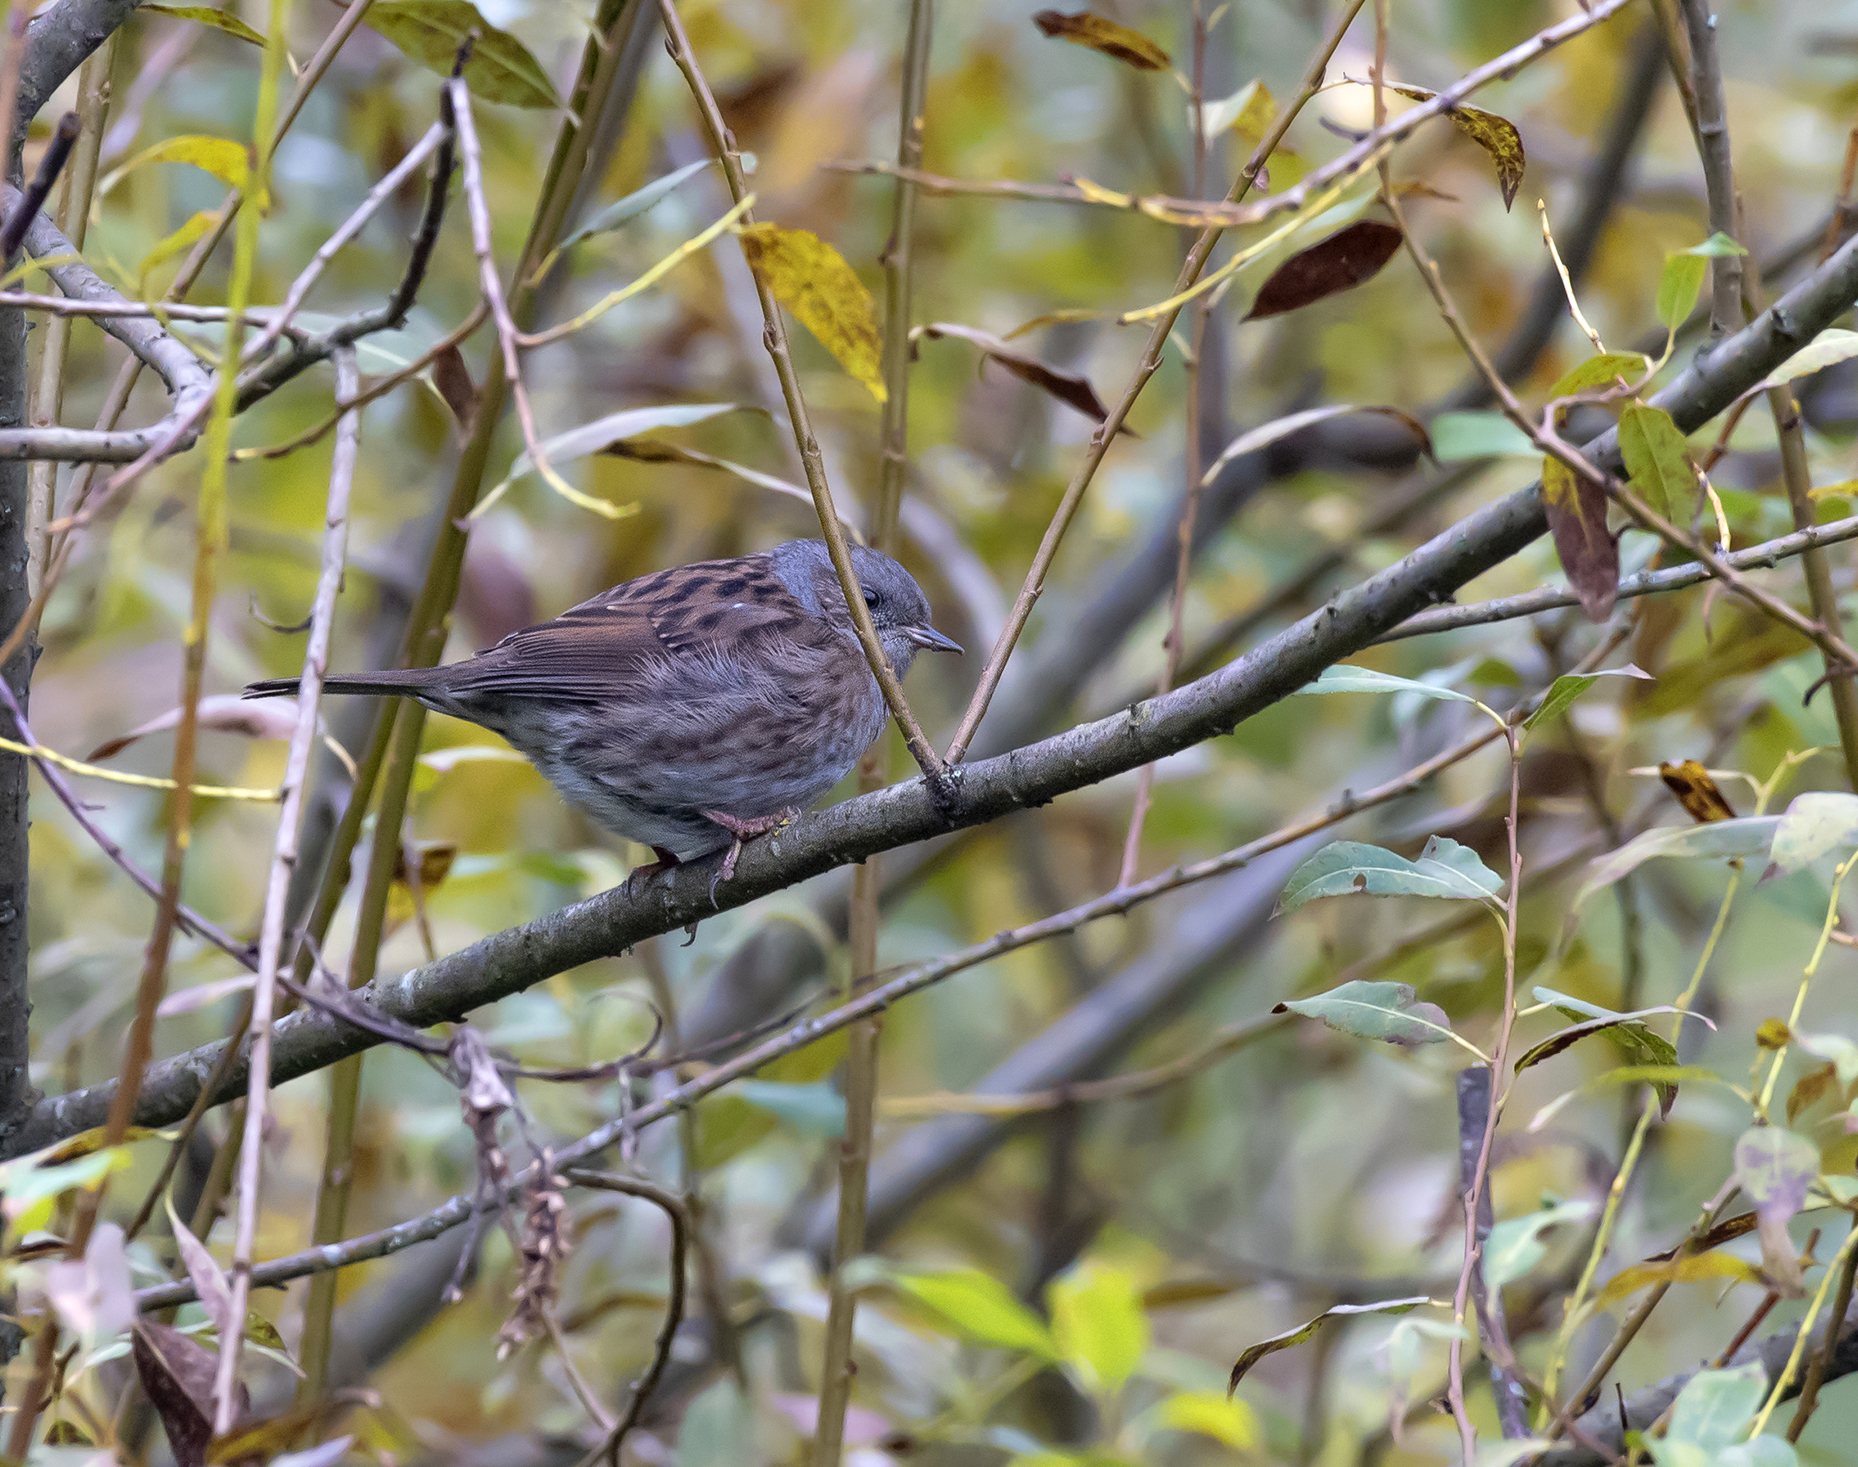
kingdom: Animalia
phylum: Chordata
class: Aves
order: Passeriformes
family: Prunellidae
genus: Prunella
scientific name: Prunella modularis
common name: Dunnock
